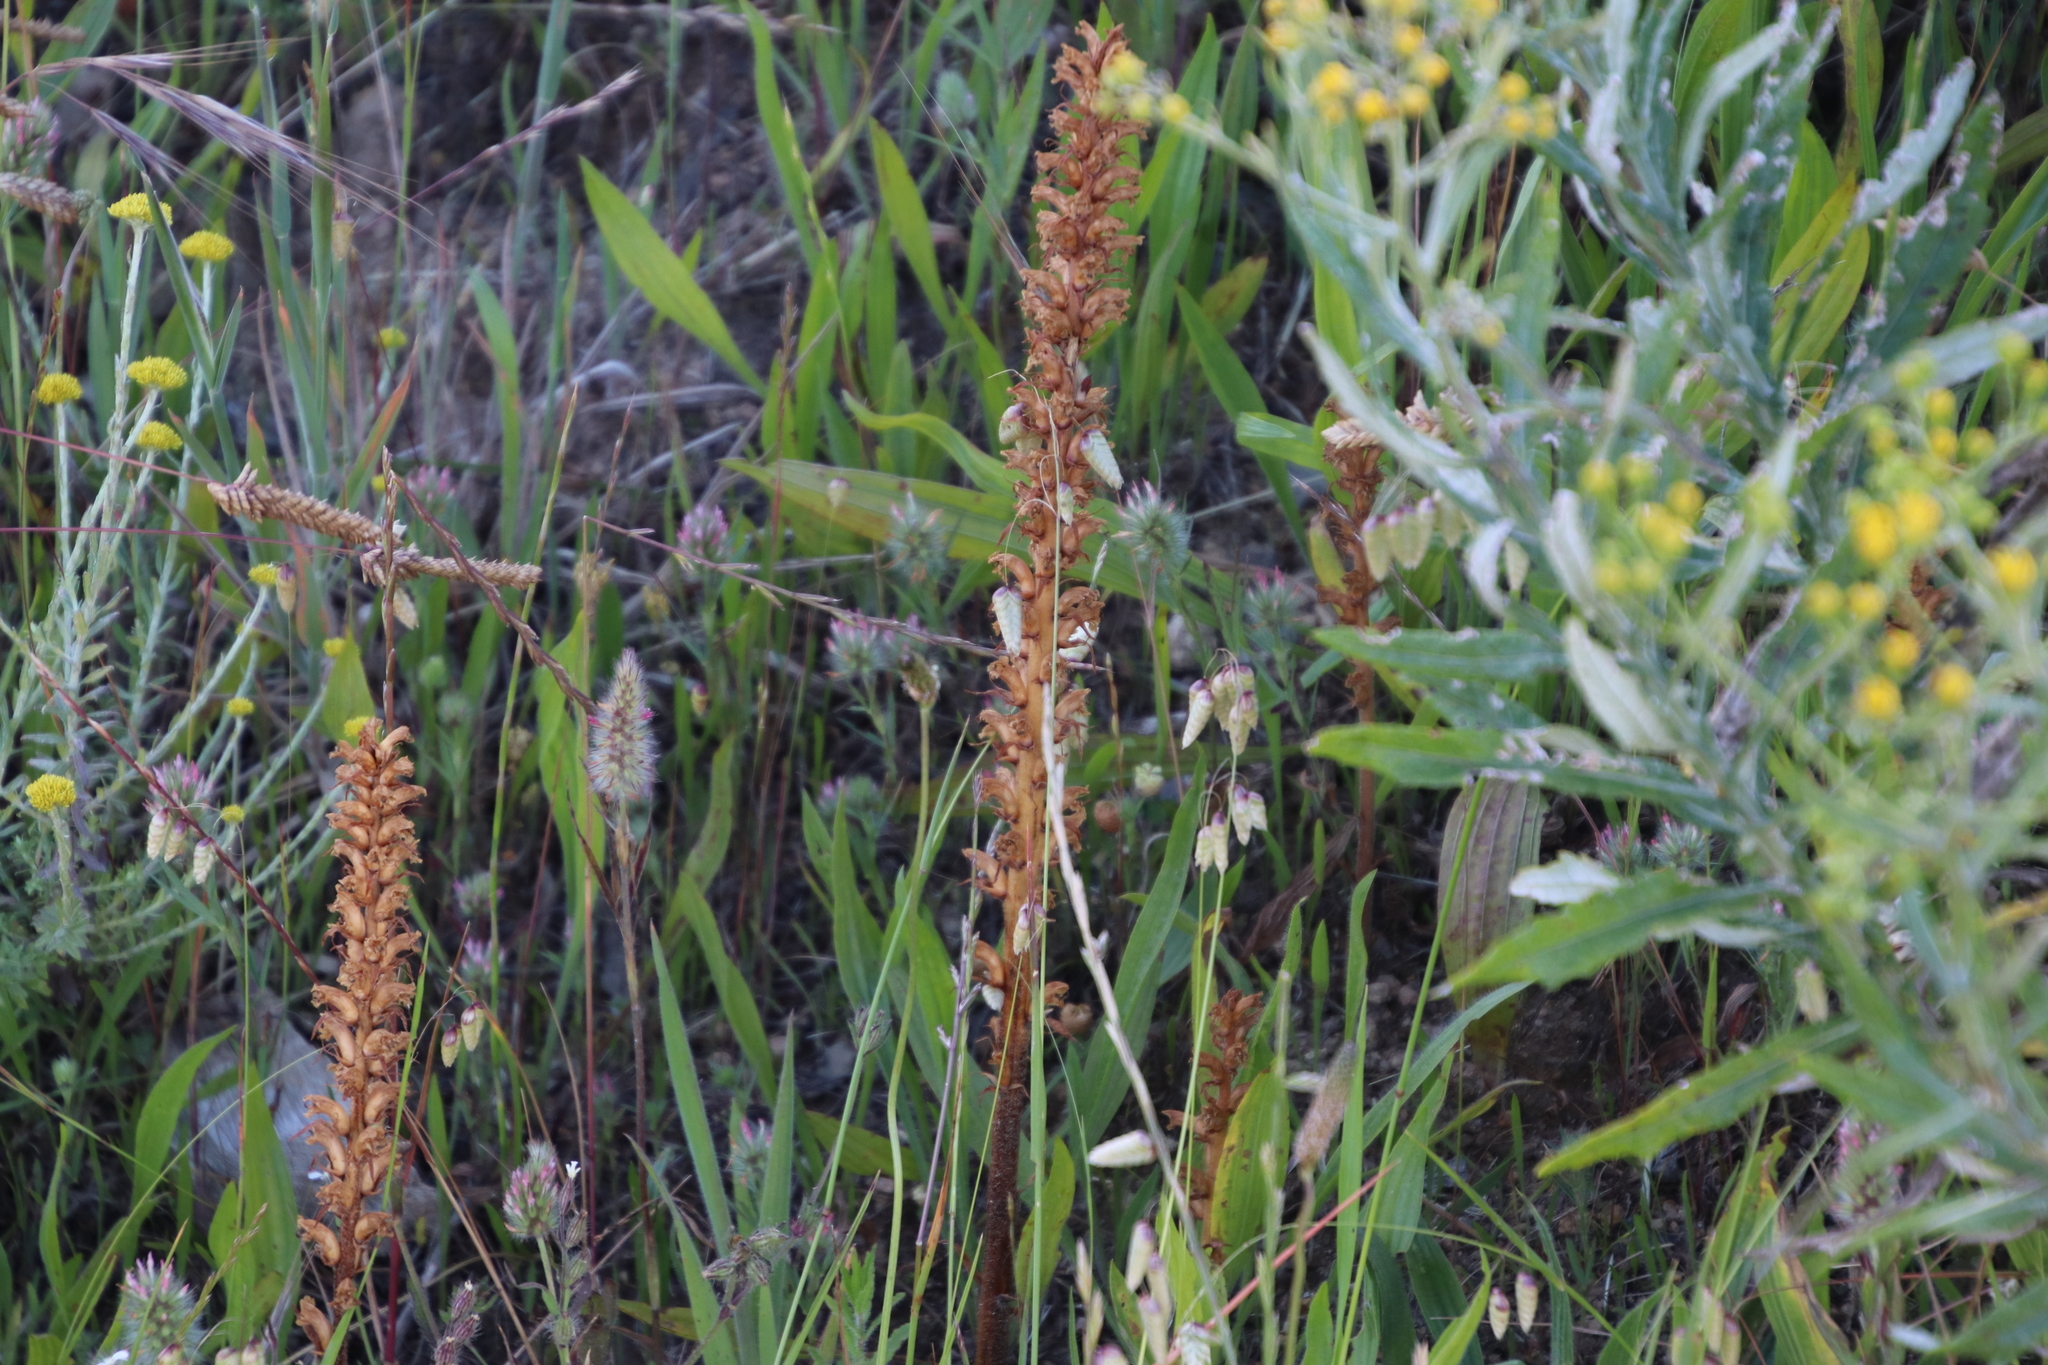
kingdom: Plantae
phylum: Tracheophyta
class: Magnoliopsida
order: Lamiales
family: Orobanchaceae
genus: Orobanche
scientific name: Orobanche minor
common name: Common broomrape
